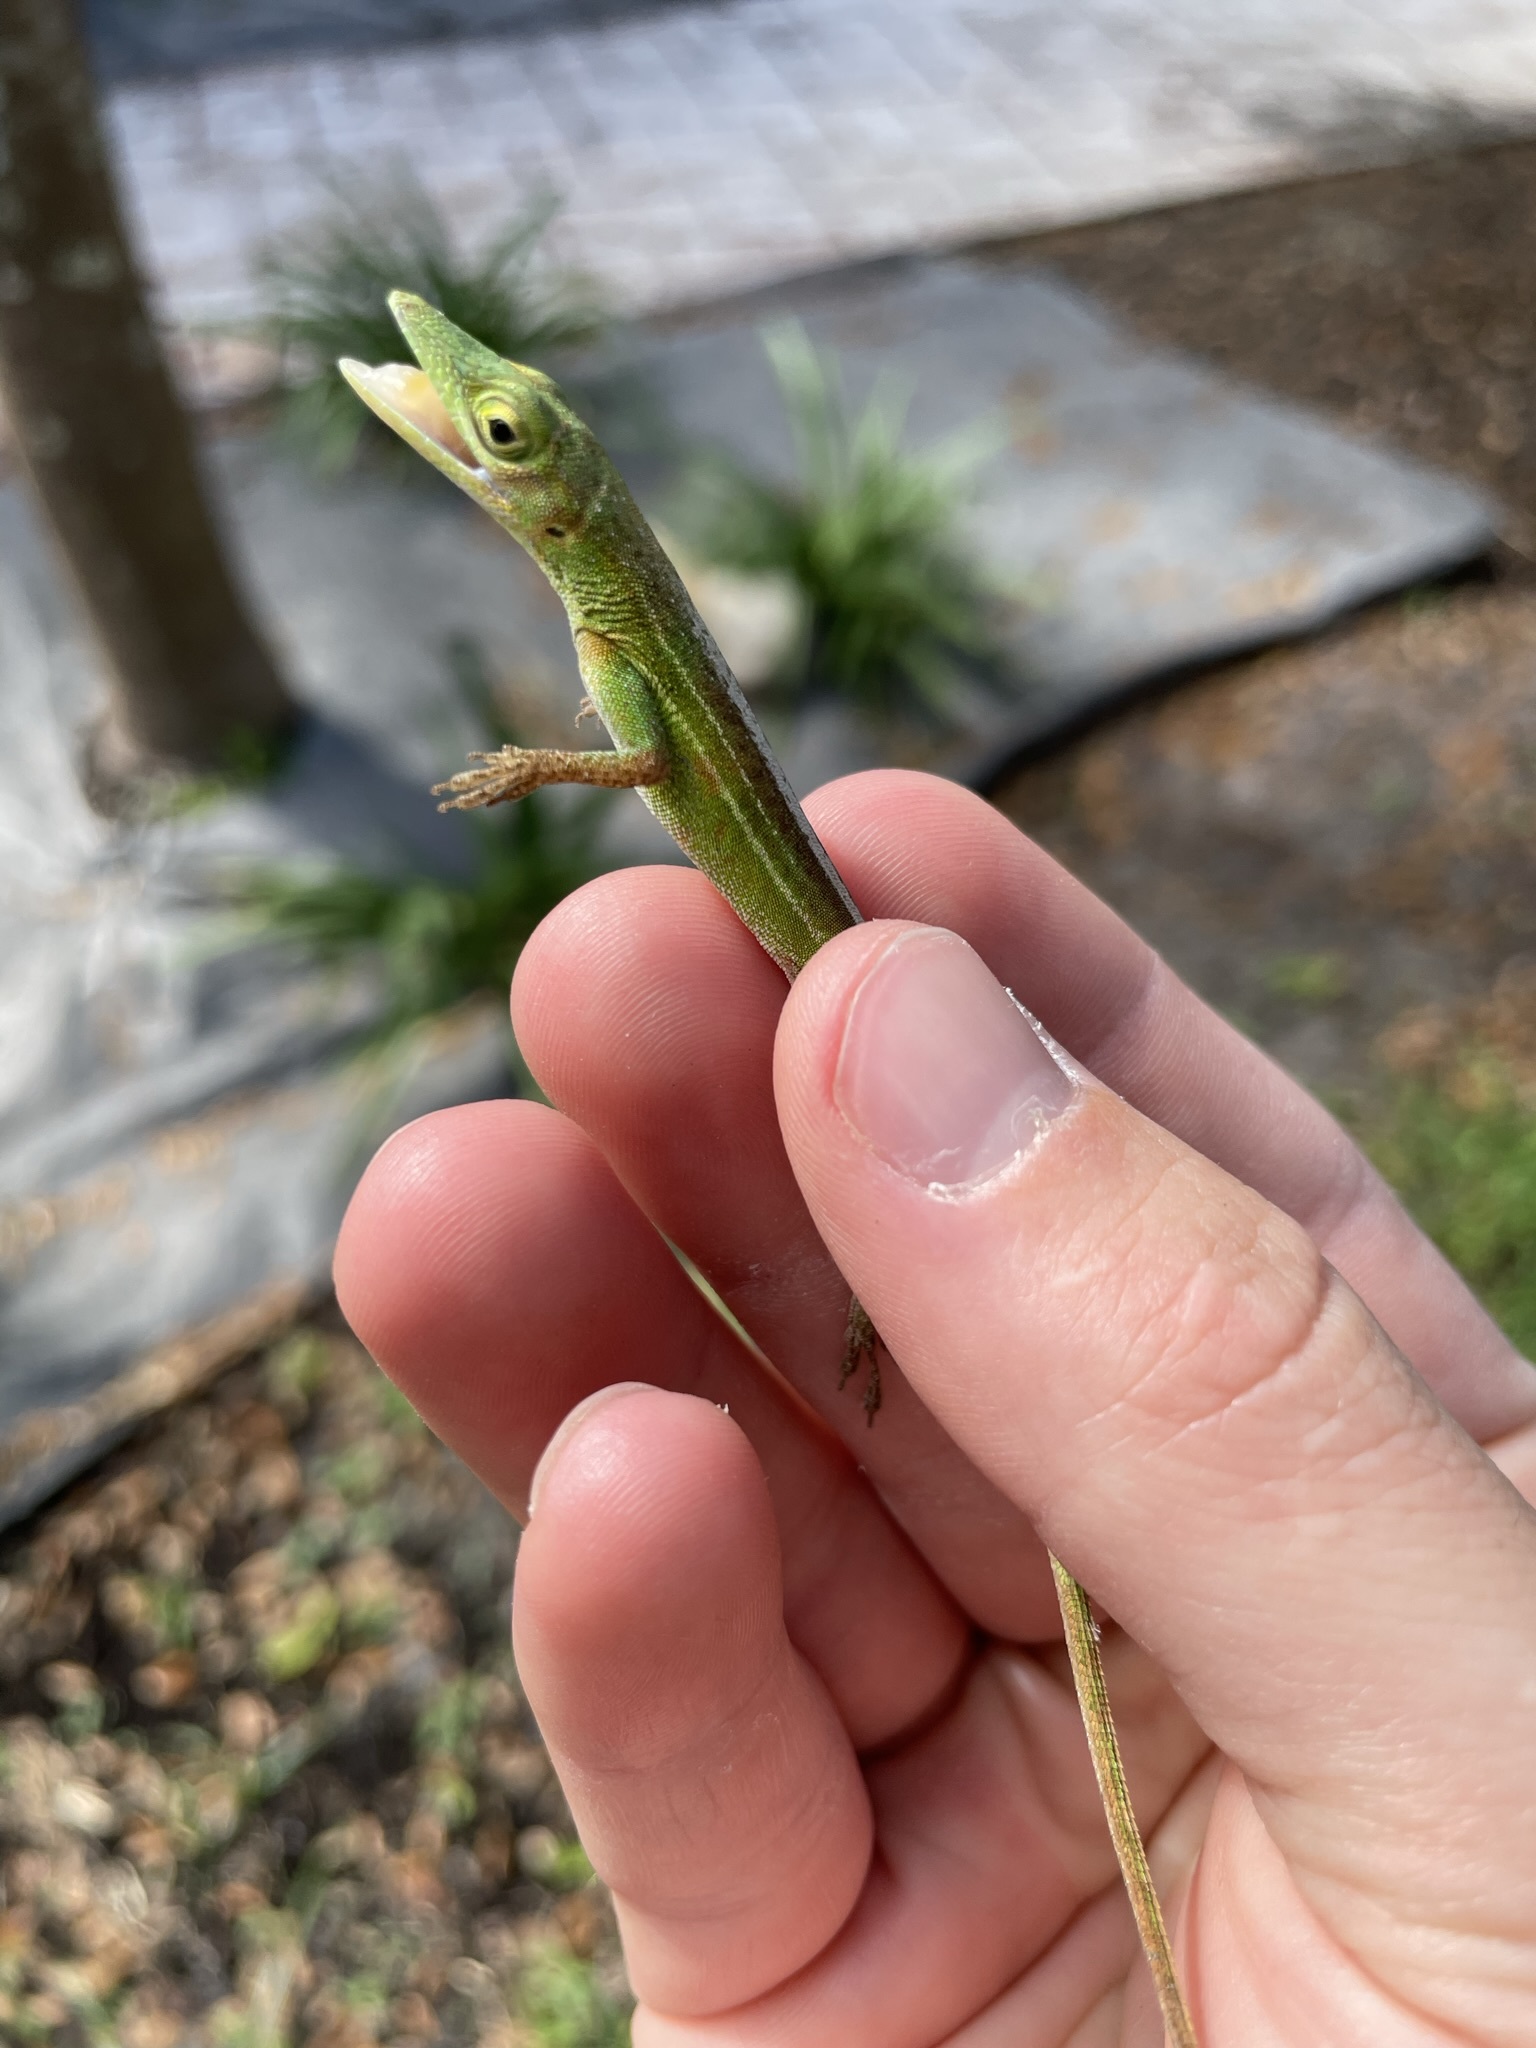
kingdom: Animalia
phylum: Chordata
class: Squamata
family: Dactyloidae
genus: Anolis
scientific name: Anolis chlorocyanus
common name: Hispaniolan green anole
